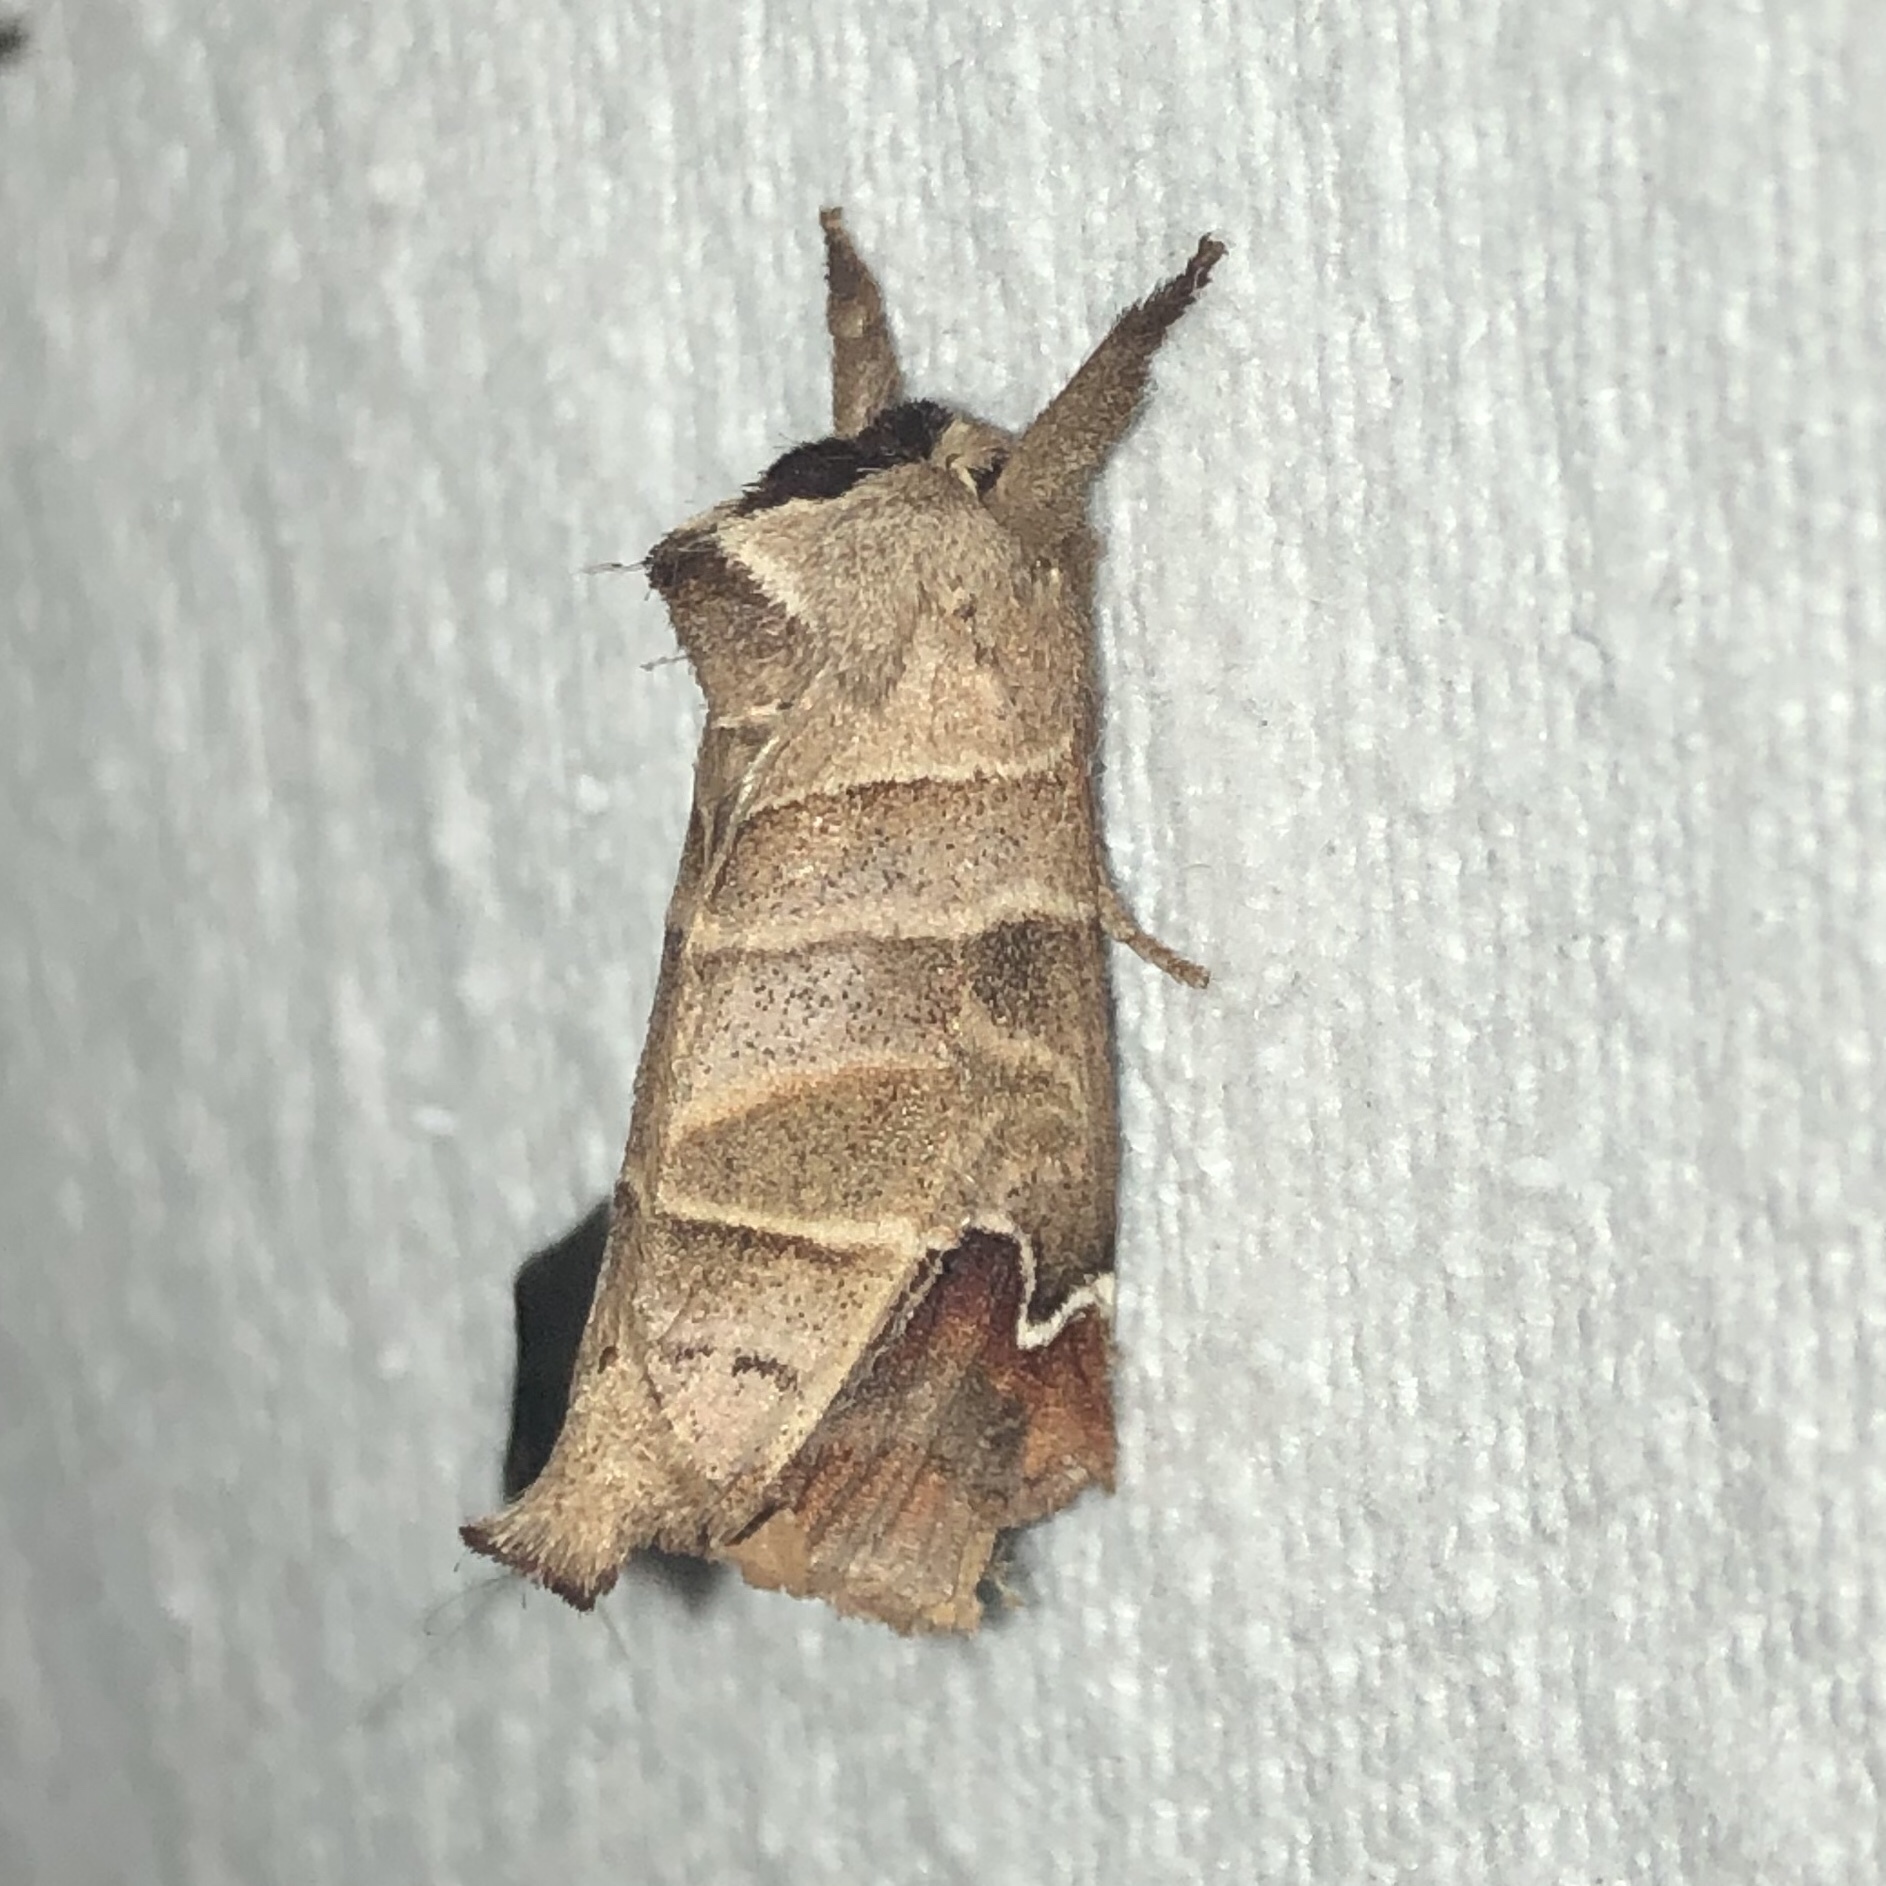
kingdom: Animalia
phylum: Arthropoda
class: Insecta
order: Lepidoptera
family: Notodontidae
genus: Clostera
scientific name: Clostera albosigma
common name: Sigmoid prominent
